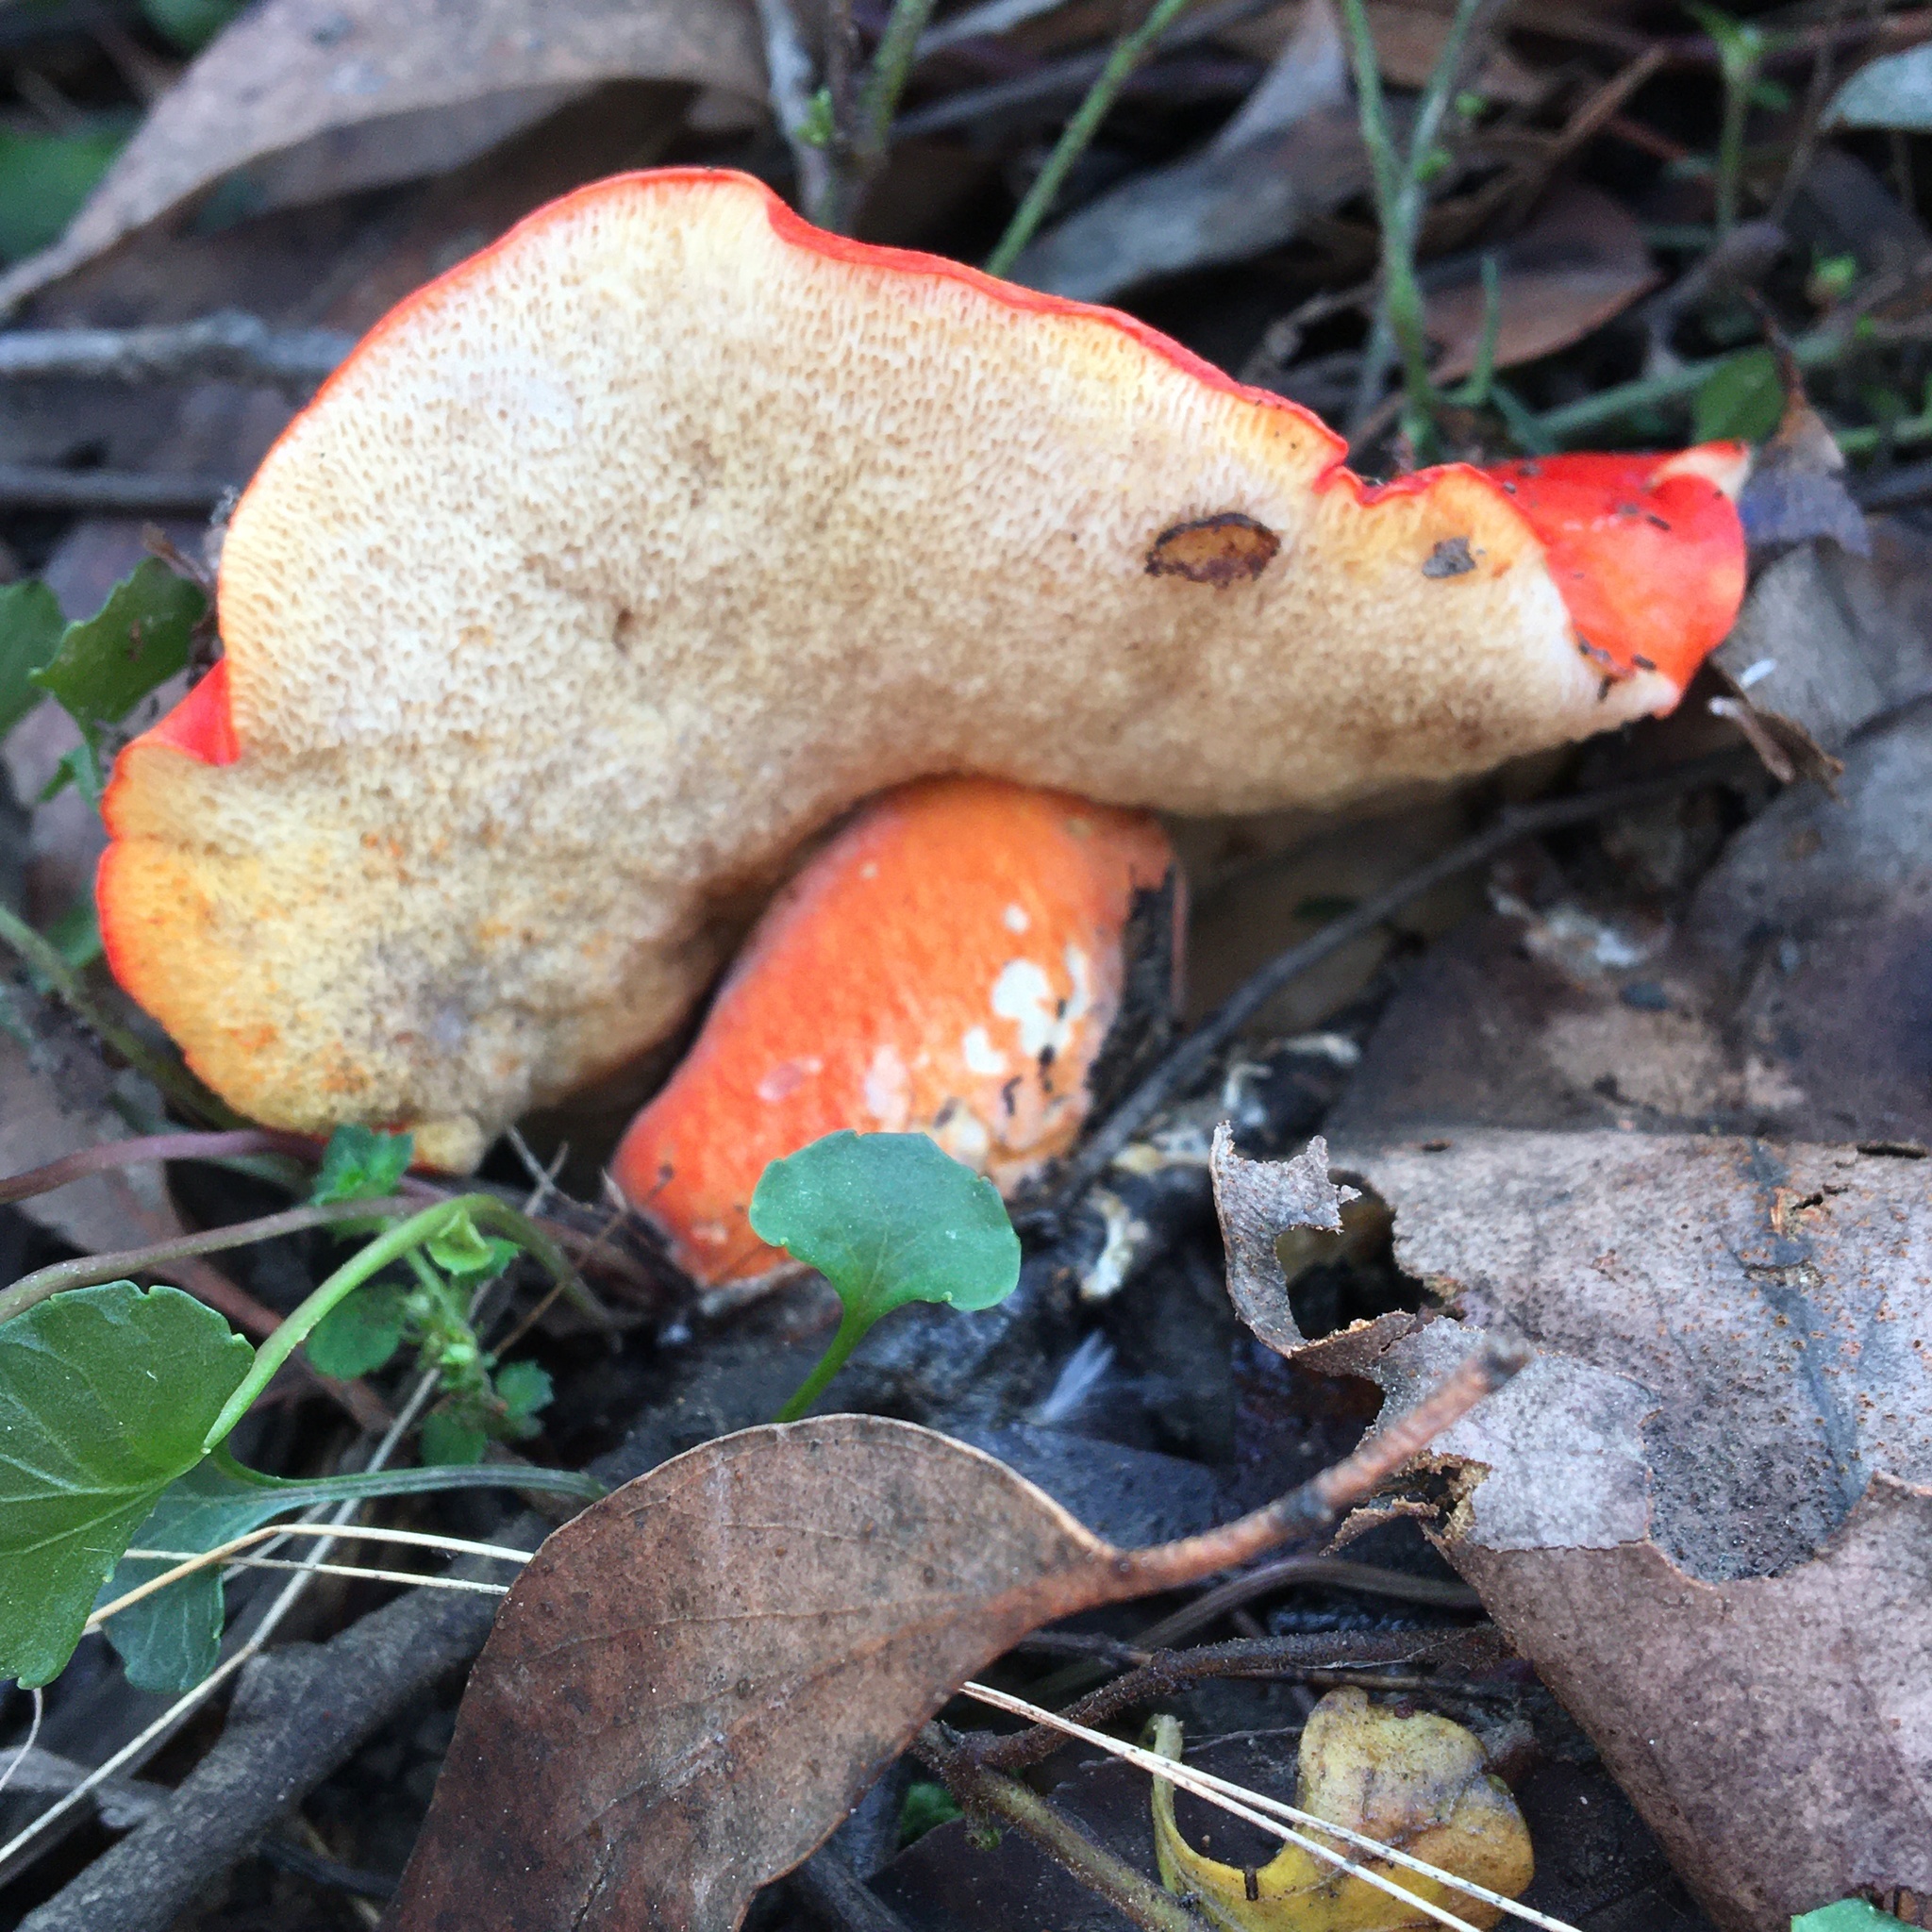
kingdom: Fungi
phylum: Basidiomycota
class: Agaricomycetes
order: Boletales
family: Boletaceae
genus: Tylopilus
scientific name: Tylopilus balloui
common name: Burnt-orange bolete
